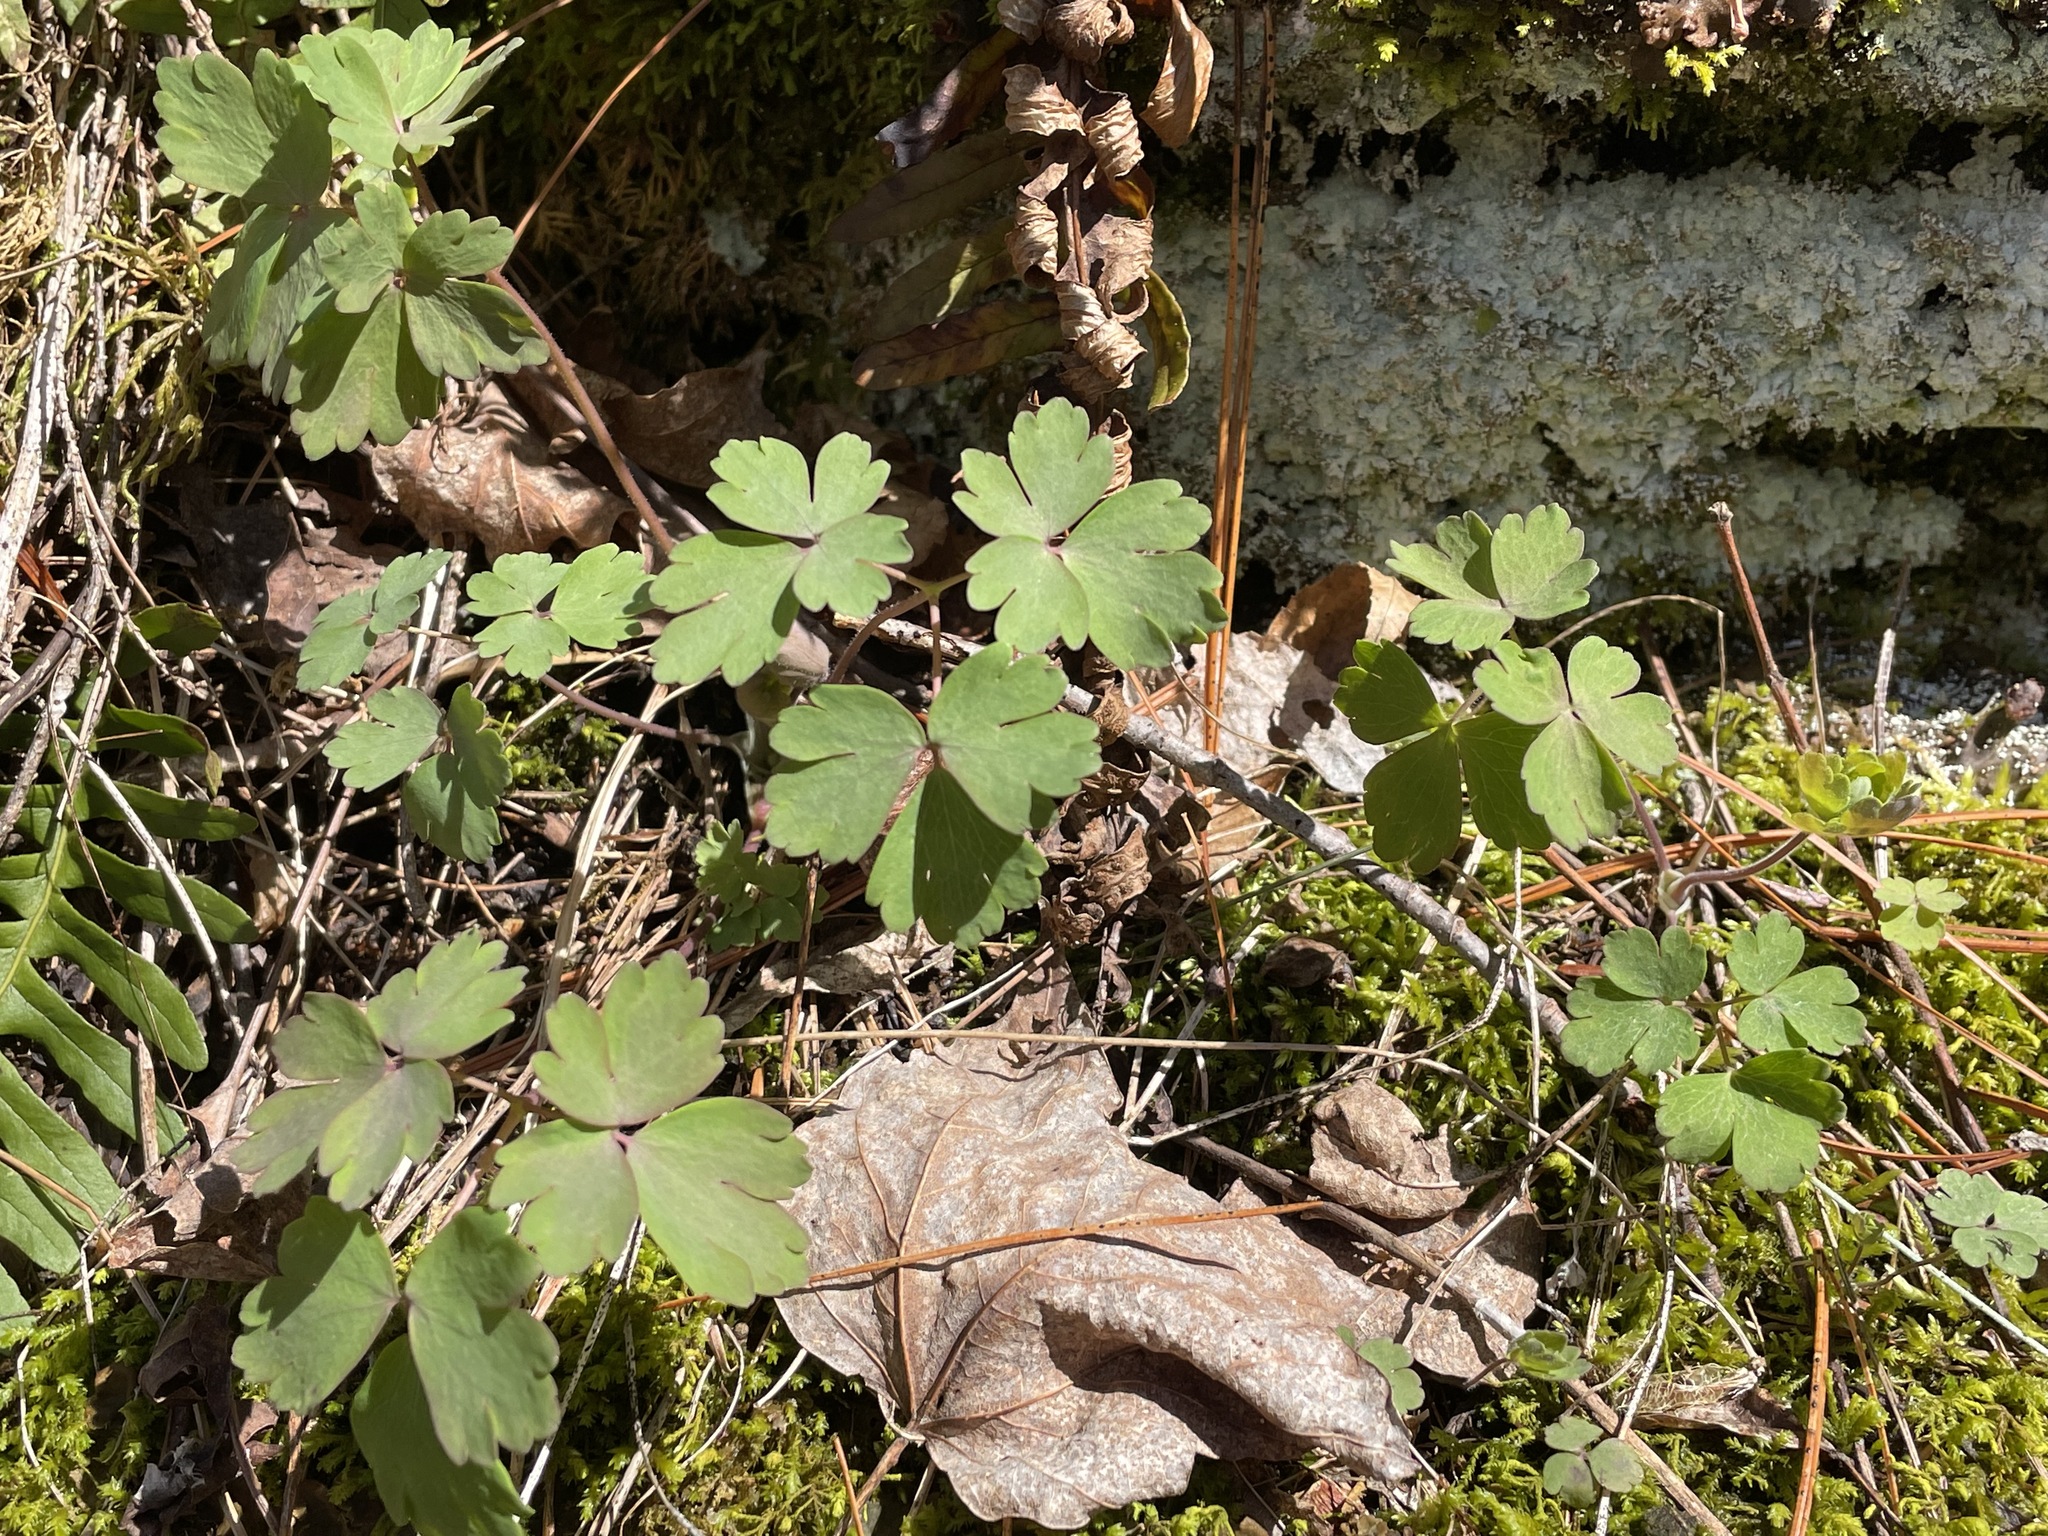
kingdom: Plantae
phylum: Tracheophyta
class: Magnoliopsida
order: Ranunculales
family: Ranunculaceae
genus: Aquilegia
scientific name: Aquilegia canadensis
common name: American columbine
